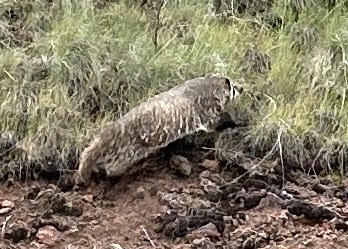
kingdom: Animalia
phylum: Chordata
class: Mammalia
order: Carnivora
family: Mustelidae
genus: Taxidea
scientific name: Taxidea taxus
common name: American badger
